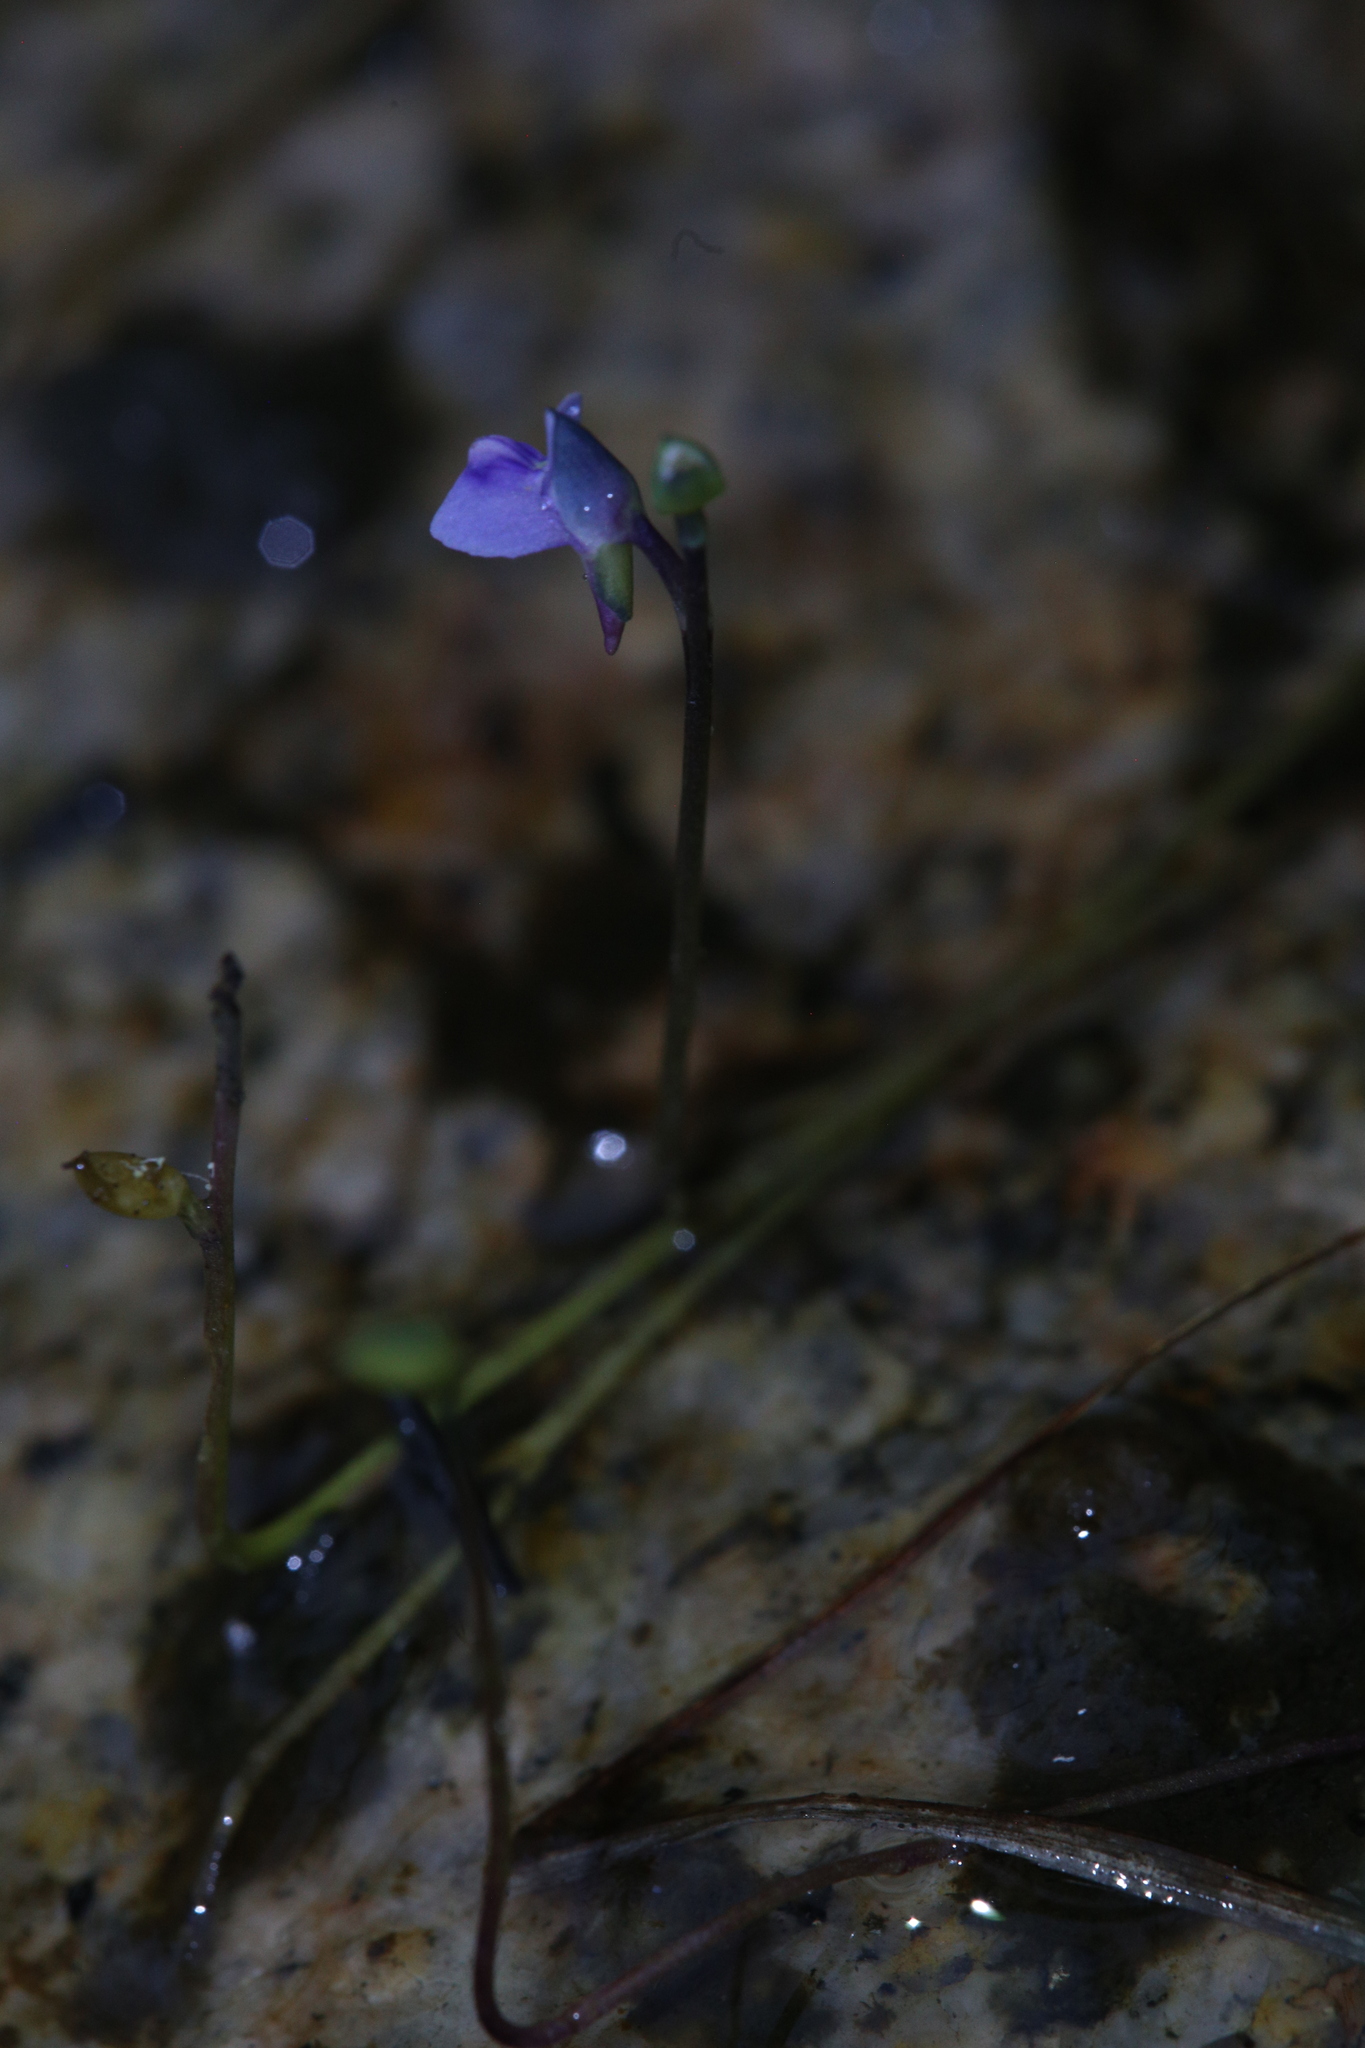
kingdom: Plantae
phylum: Tracheophyta
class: Magnoliopsida
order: Lamiales
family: Lentibulariaceae
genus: Utricularia
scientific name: Utricularia uliginosa
